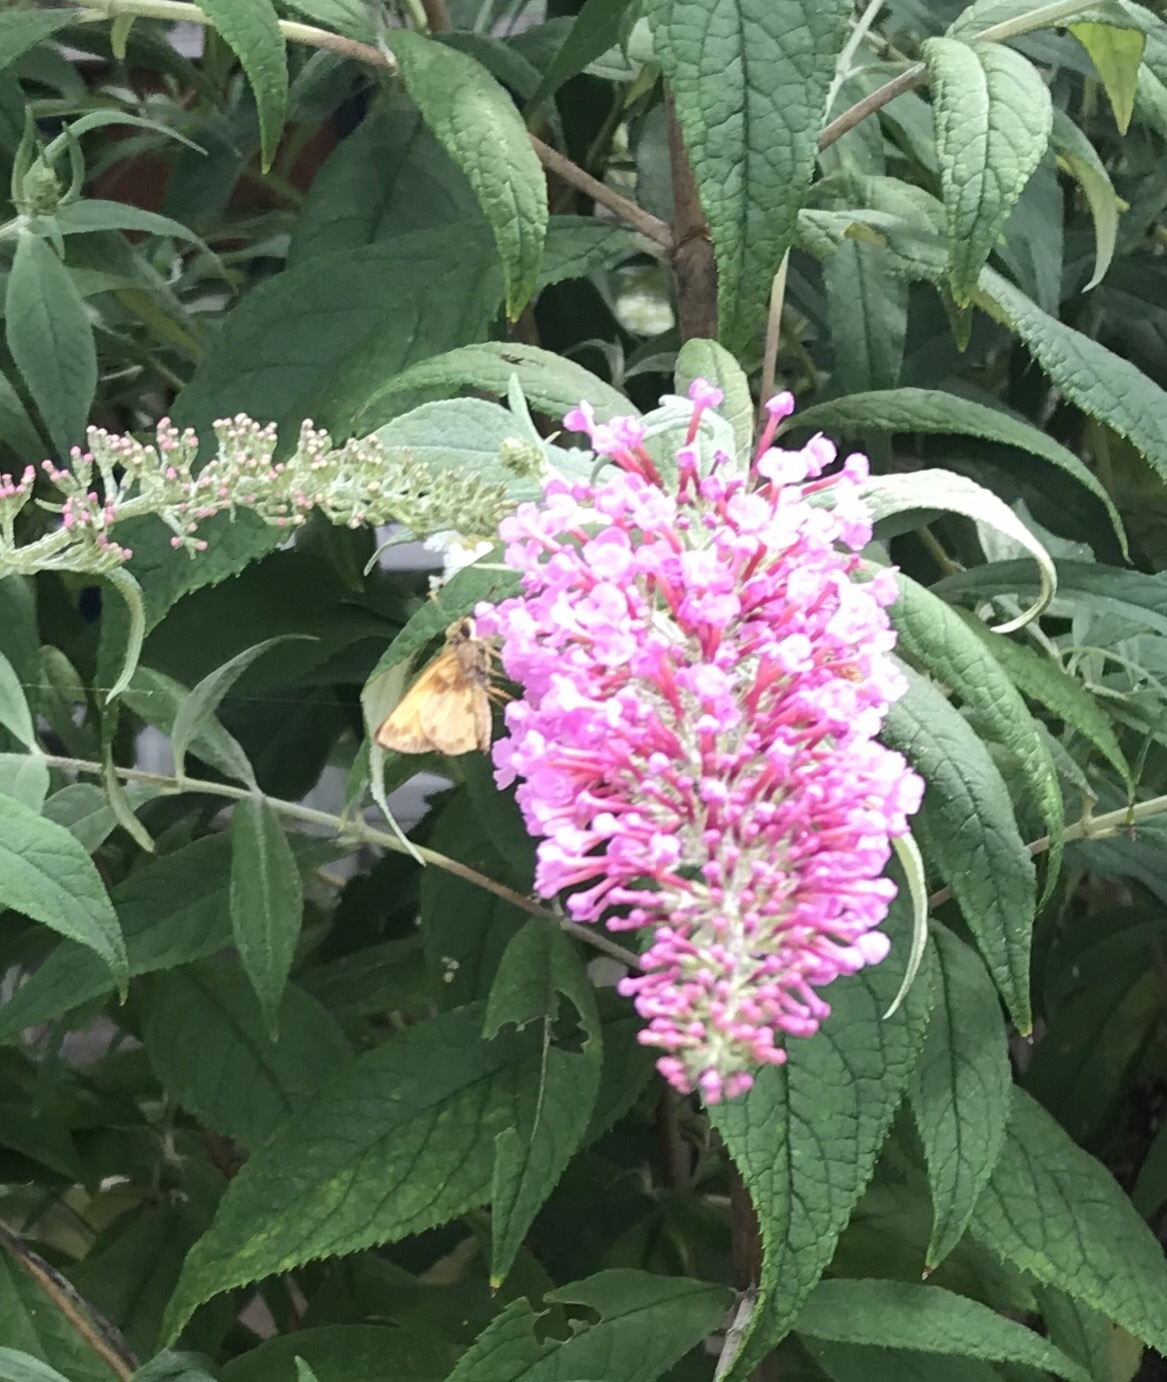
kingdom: Animalia
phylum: Arthropoda
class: Insecta
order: Lepidoptera
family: Hesperiidae
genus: Lon
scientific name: Lon zabulon
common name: Zabulon skipper
